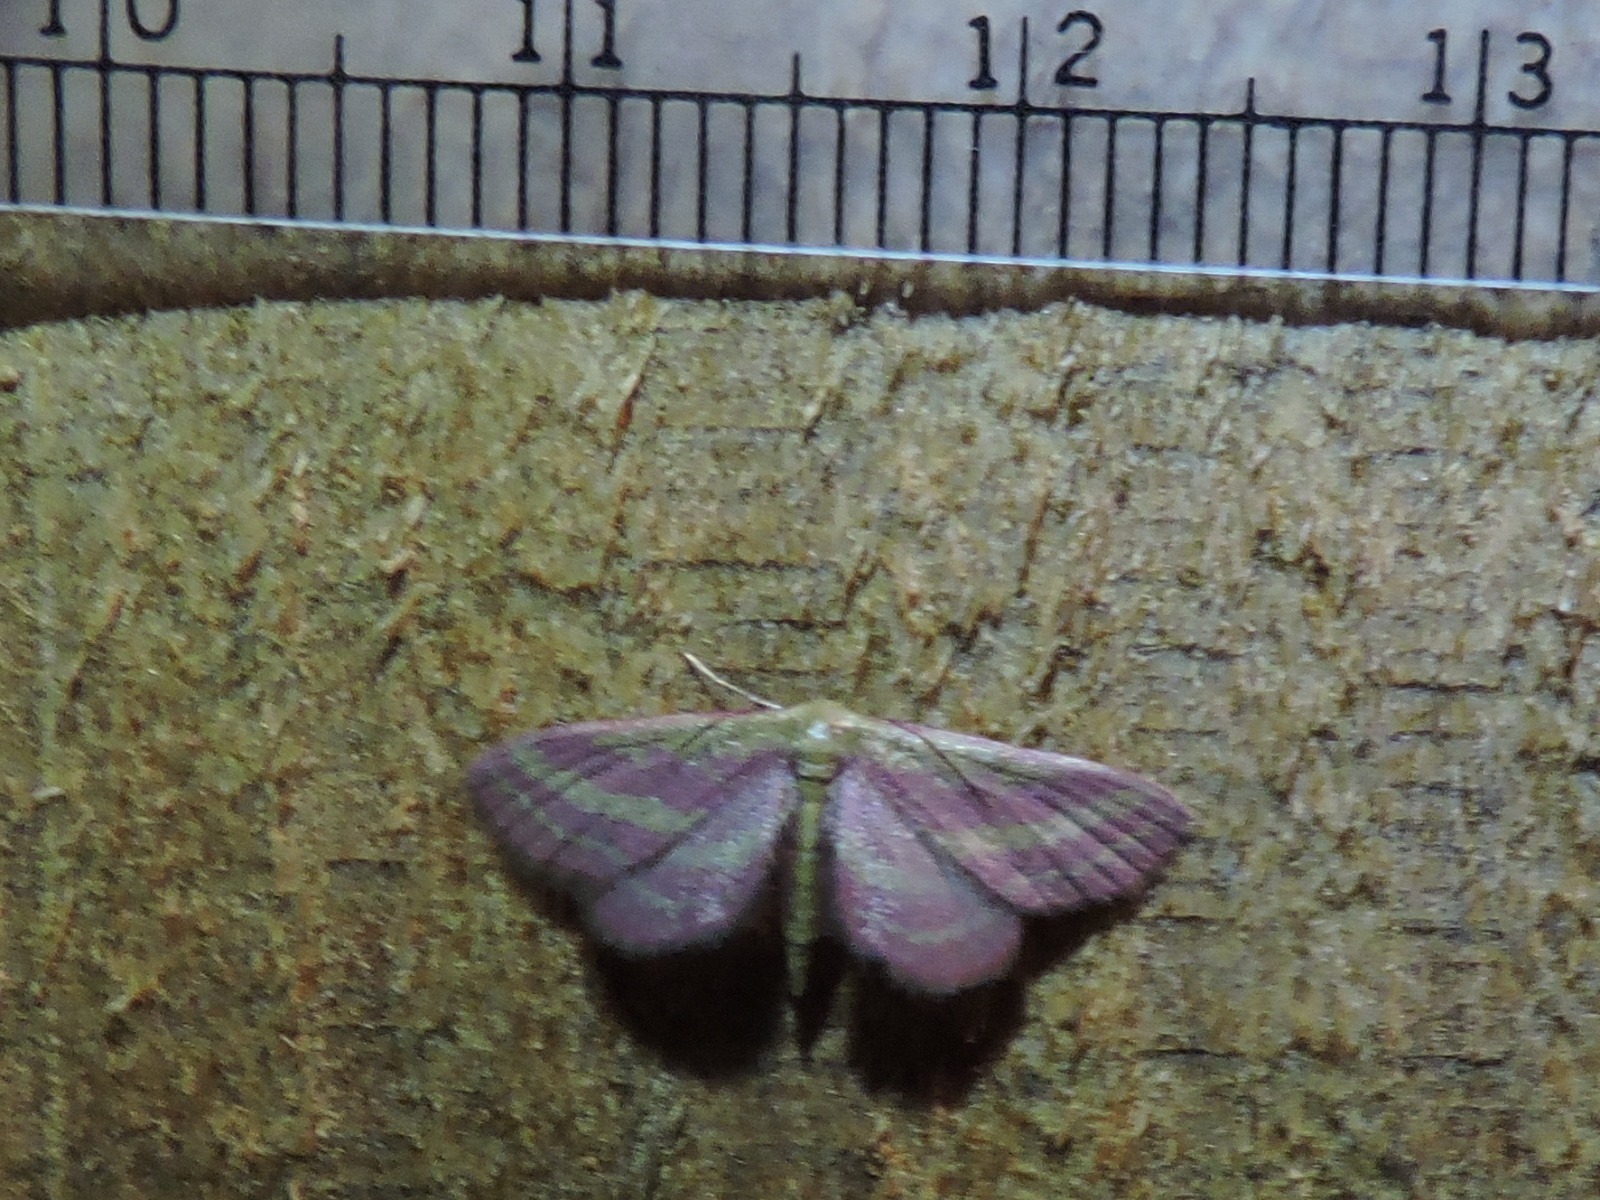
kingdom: Animalia
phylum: Arthropoda
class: Insecta
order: Lepidoptera
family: Geometridae
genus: Leptostales
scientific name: Leptostales laevitaria
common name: Raspberry wave moth
